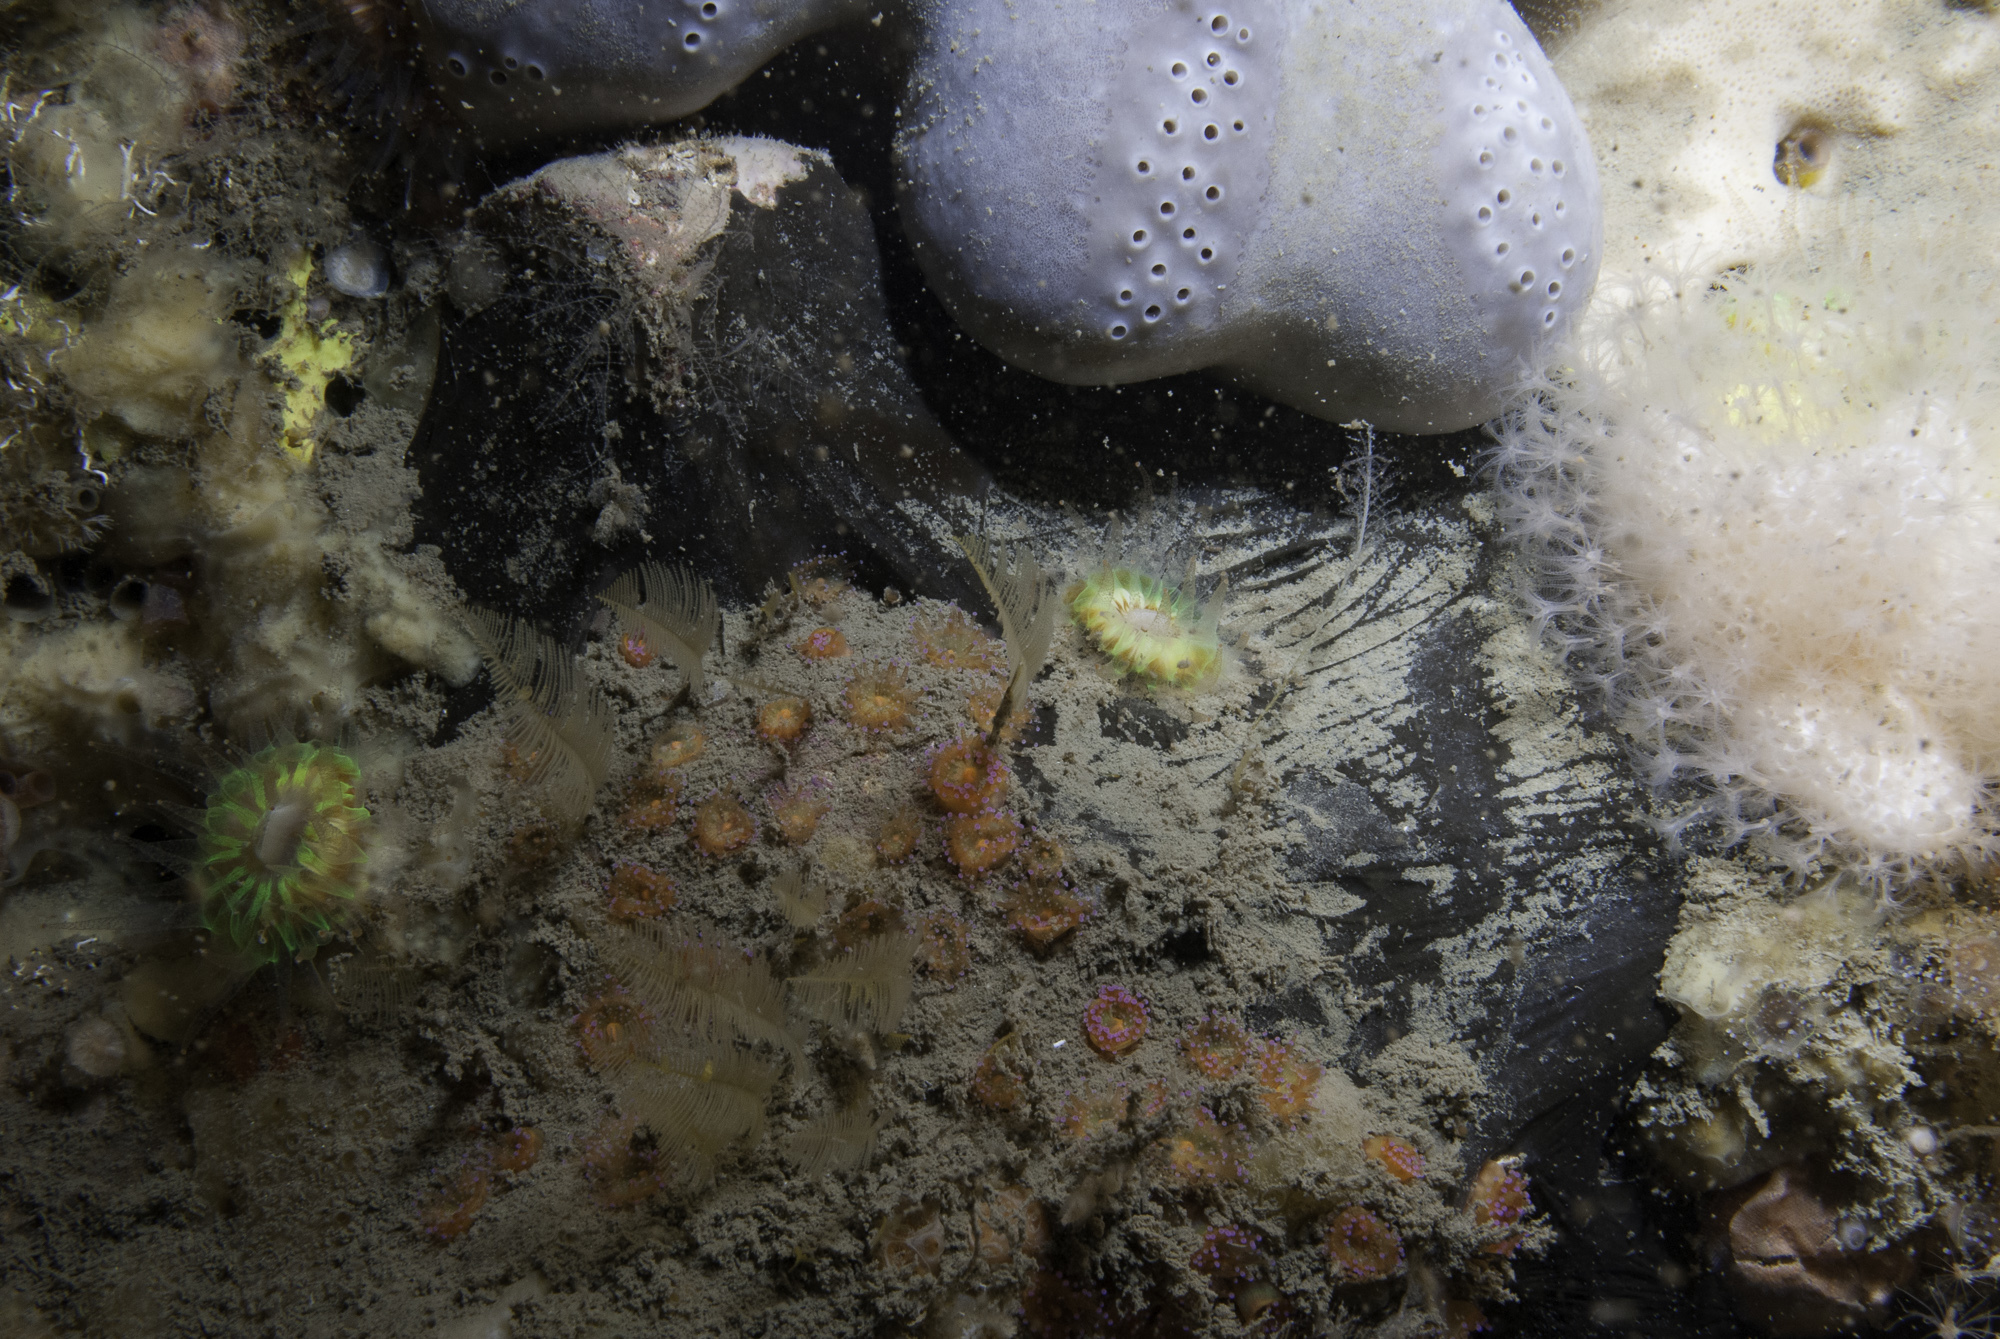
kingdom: Animalia
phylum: Porifera
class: Demospongiae
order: Tetractinellida
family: Ancorinidae
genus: Dercitus
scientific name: Dercitus bucklandi
